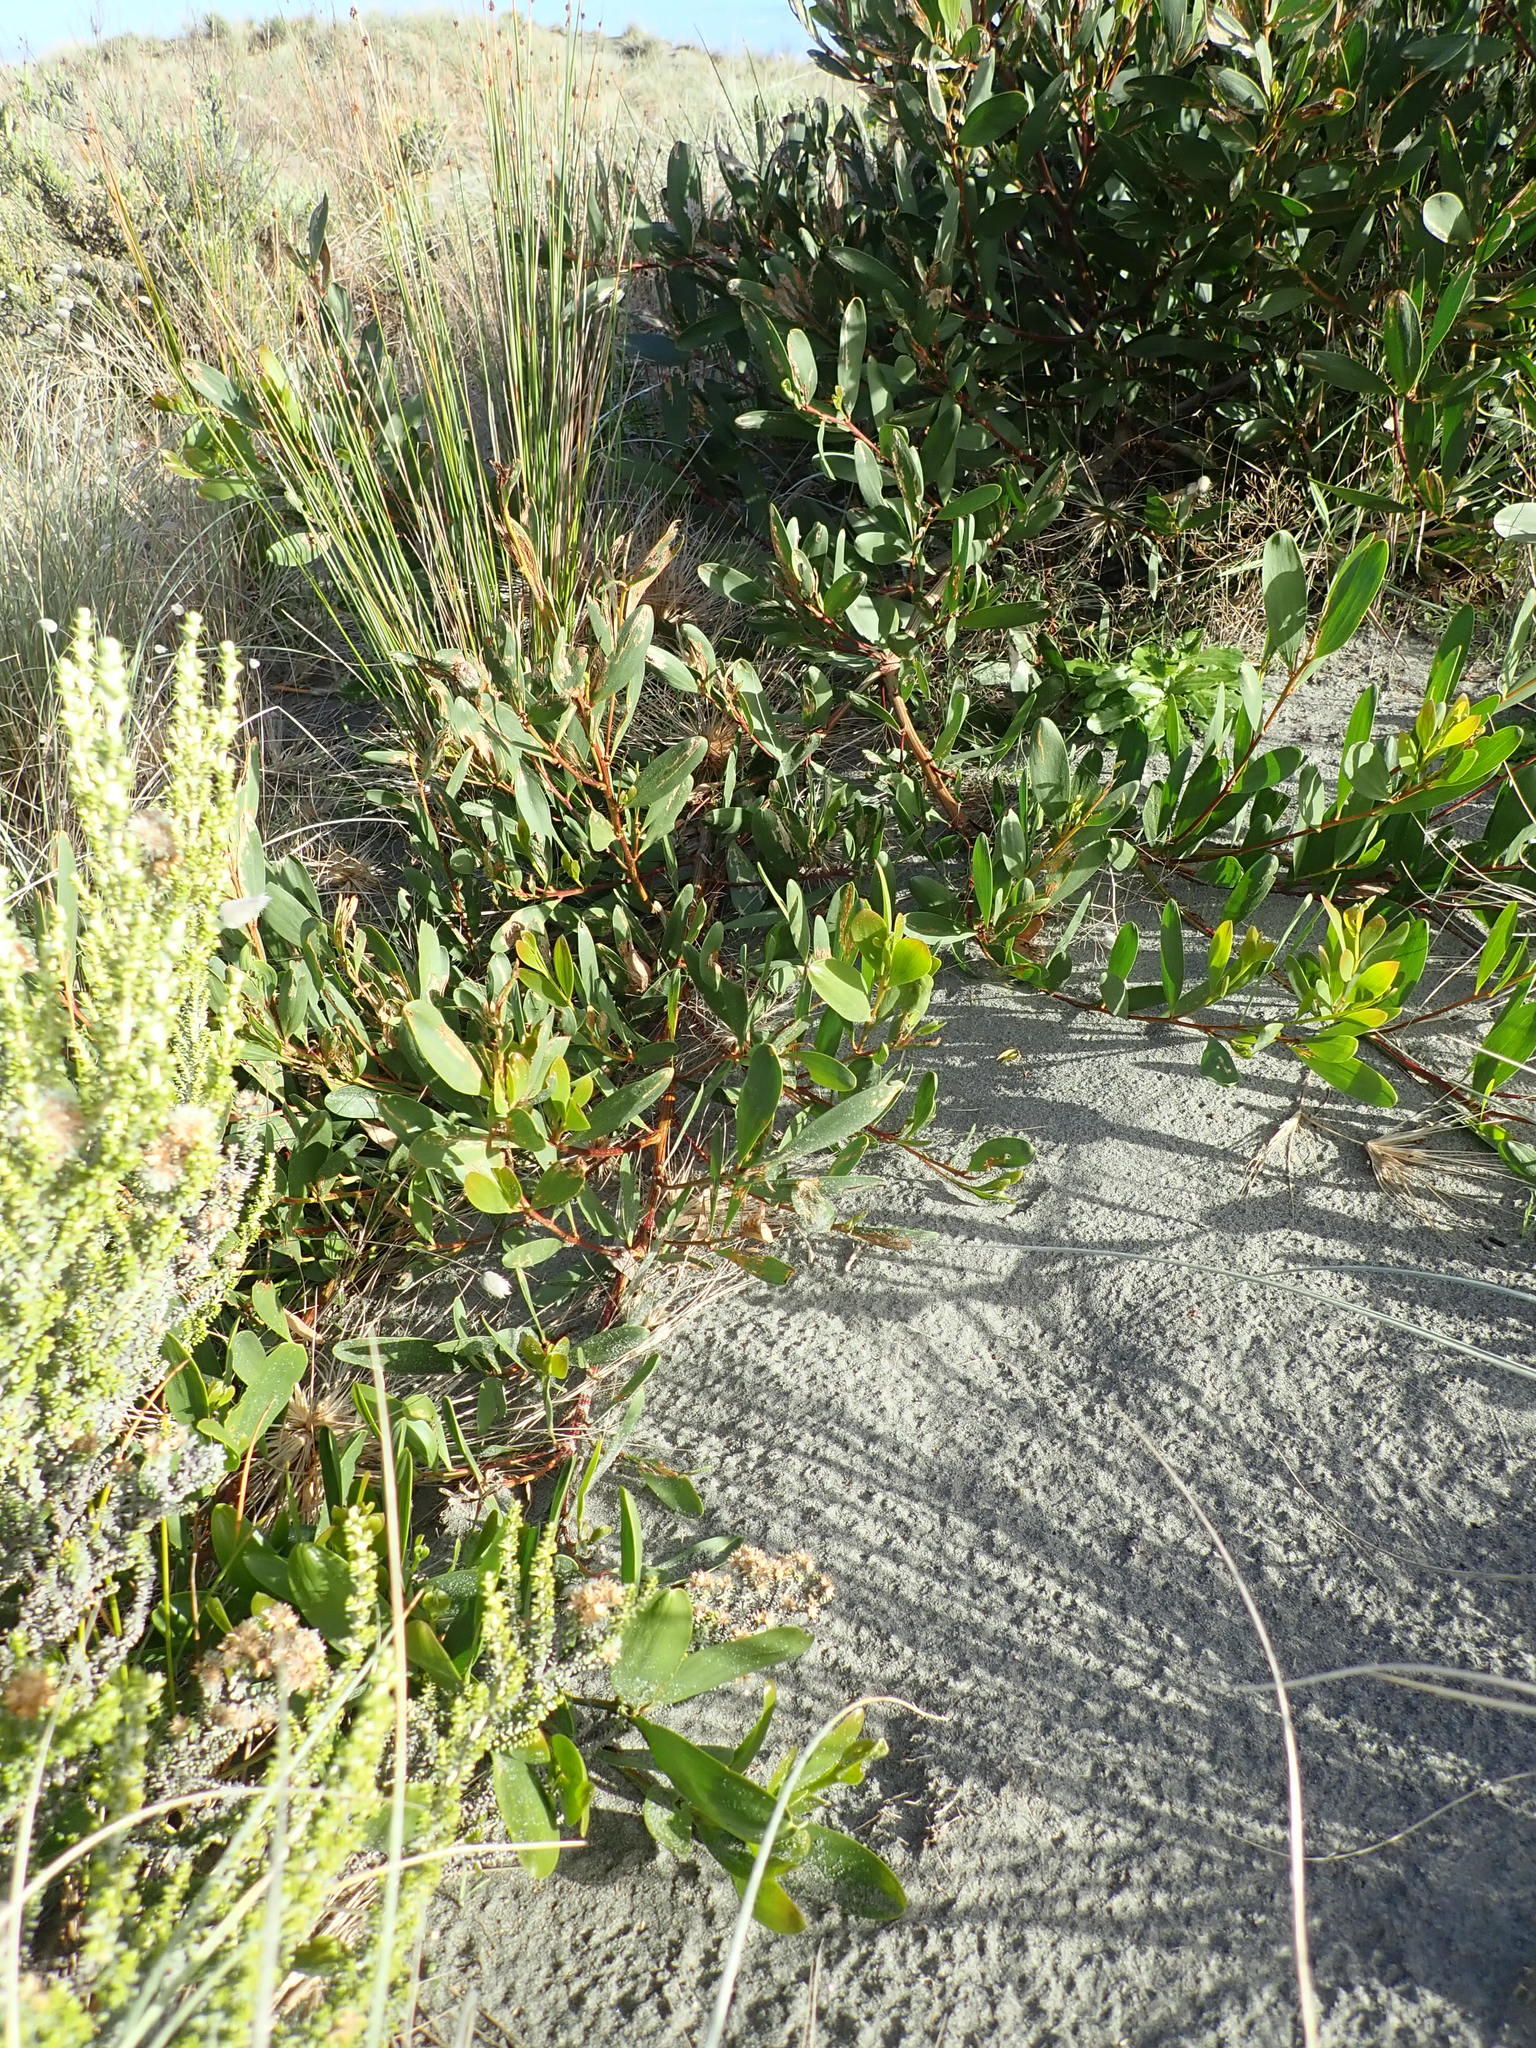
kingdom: Plantae
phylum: Tracheophyta
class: Magnoliopsida
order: Fabales
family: Fabaceae
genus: Acacia
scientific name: Acacia longifolia
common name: Sydney golden wattle
